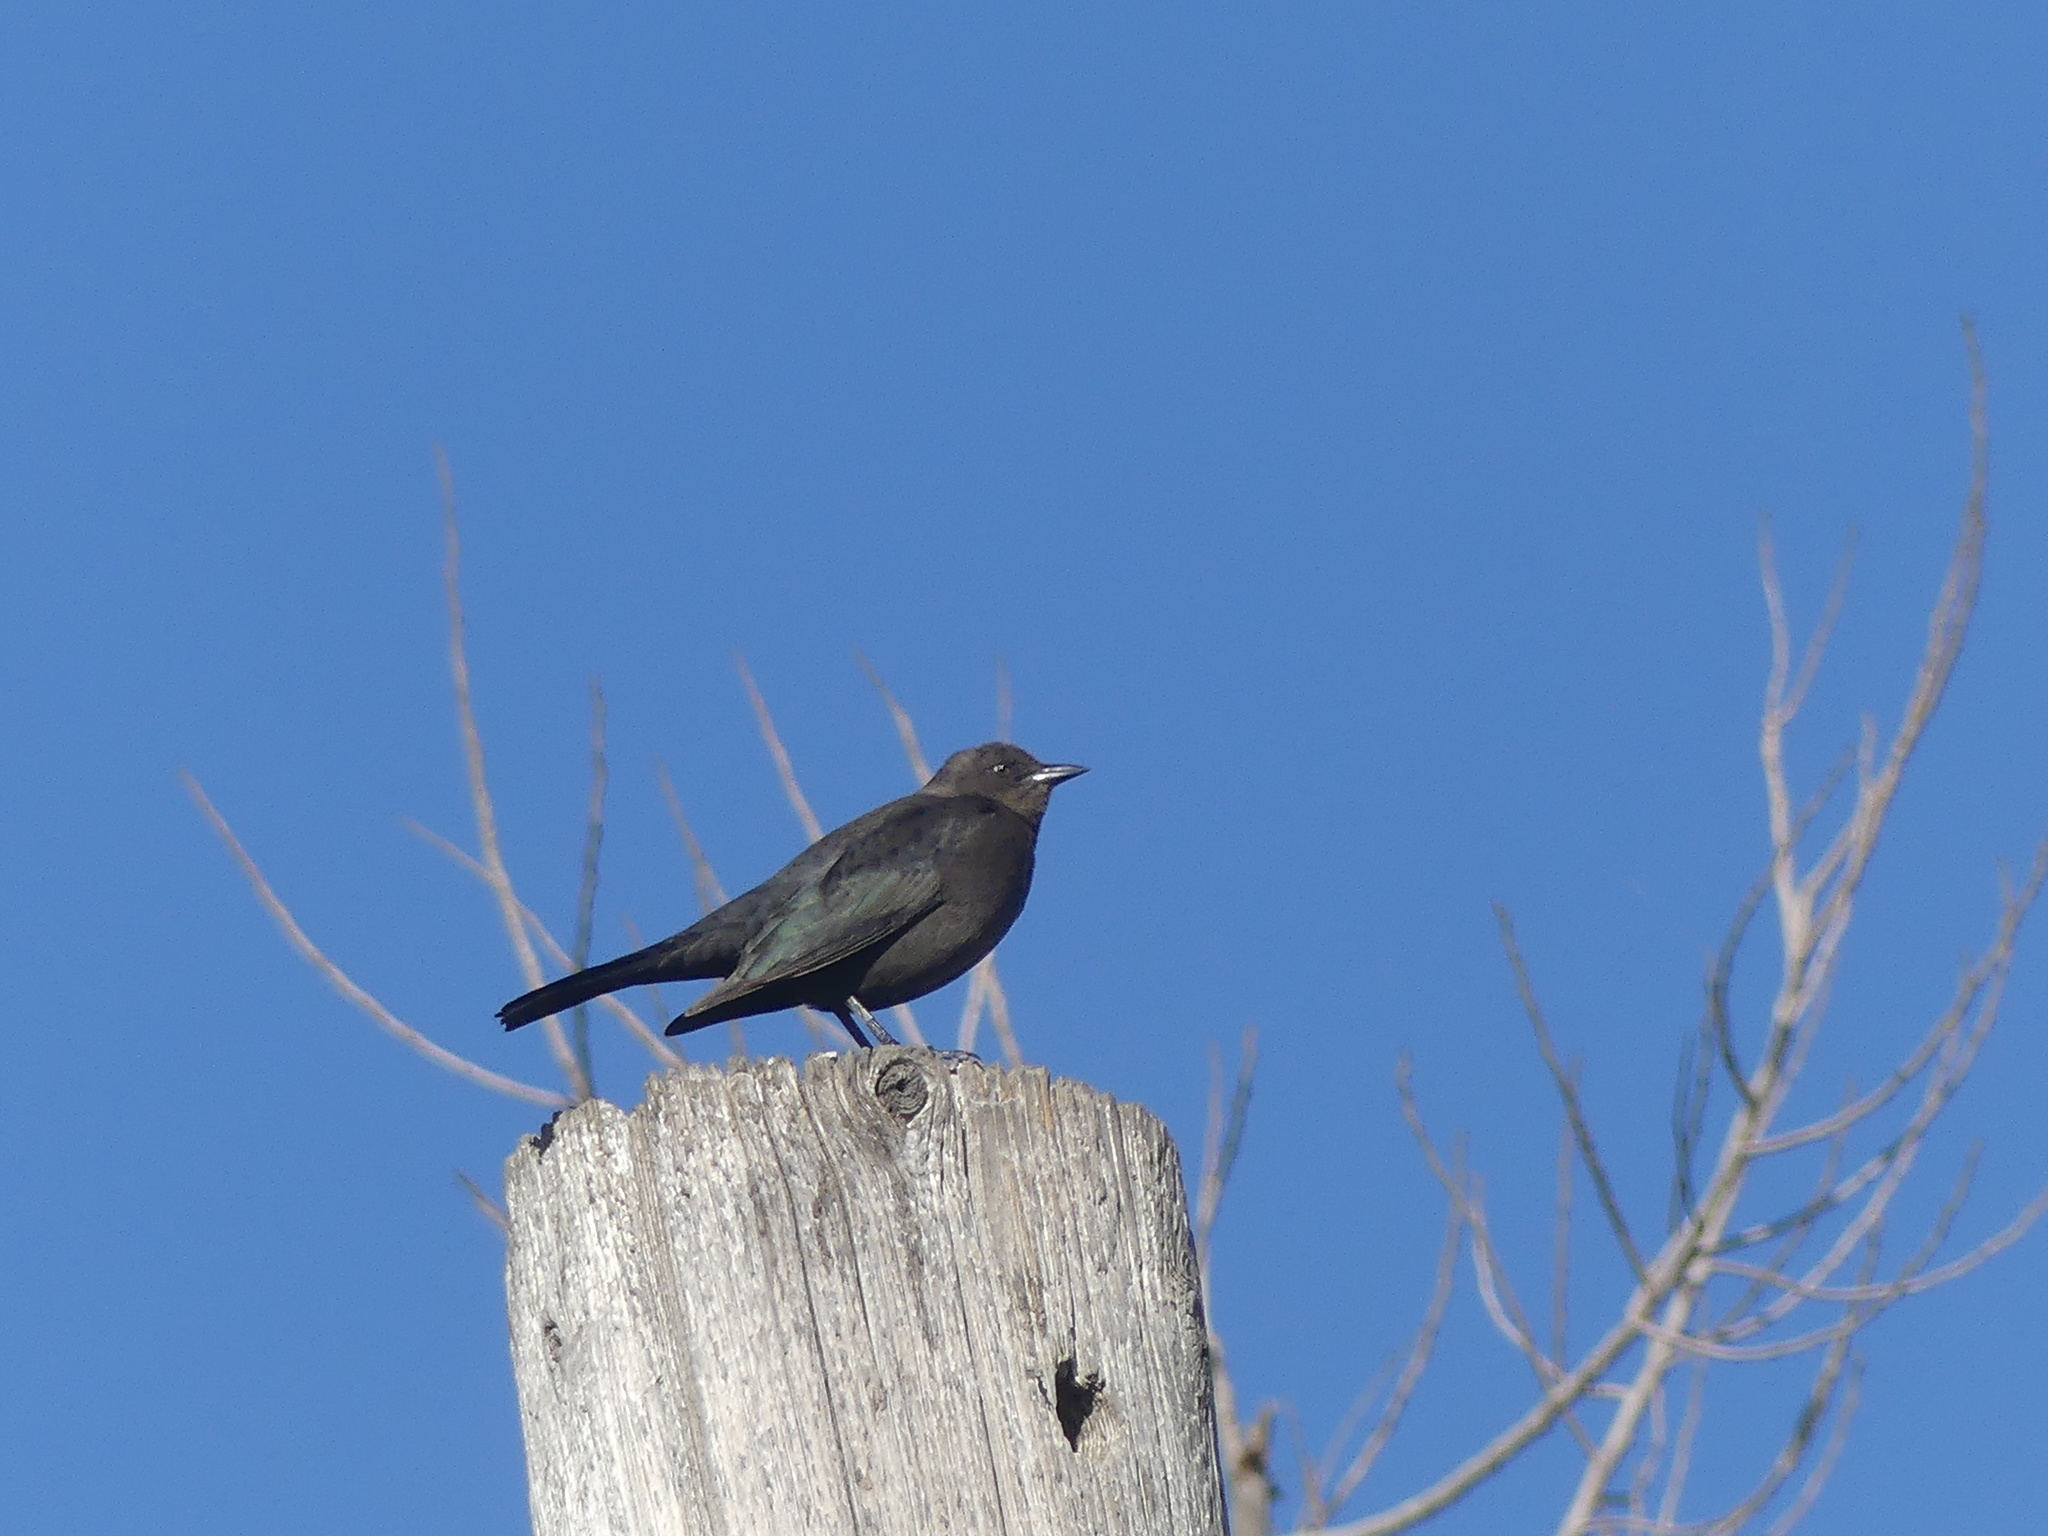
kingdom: Animalia
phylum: Chordata
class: Aves
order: Passeriformes
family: Icteridae
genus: Euphagus
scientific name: Euphagus cyanocephalus
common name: Brewer's blackbird
